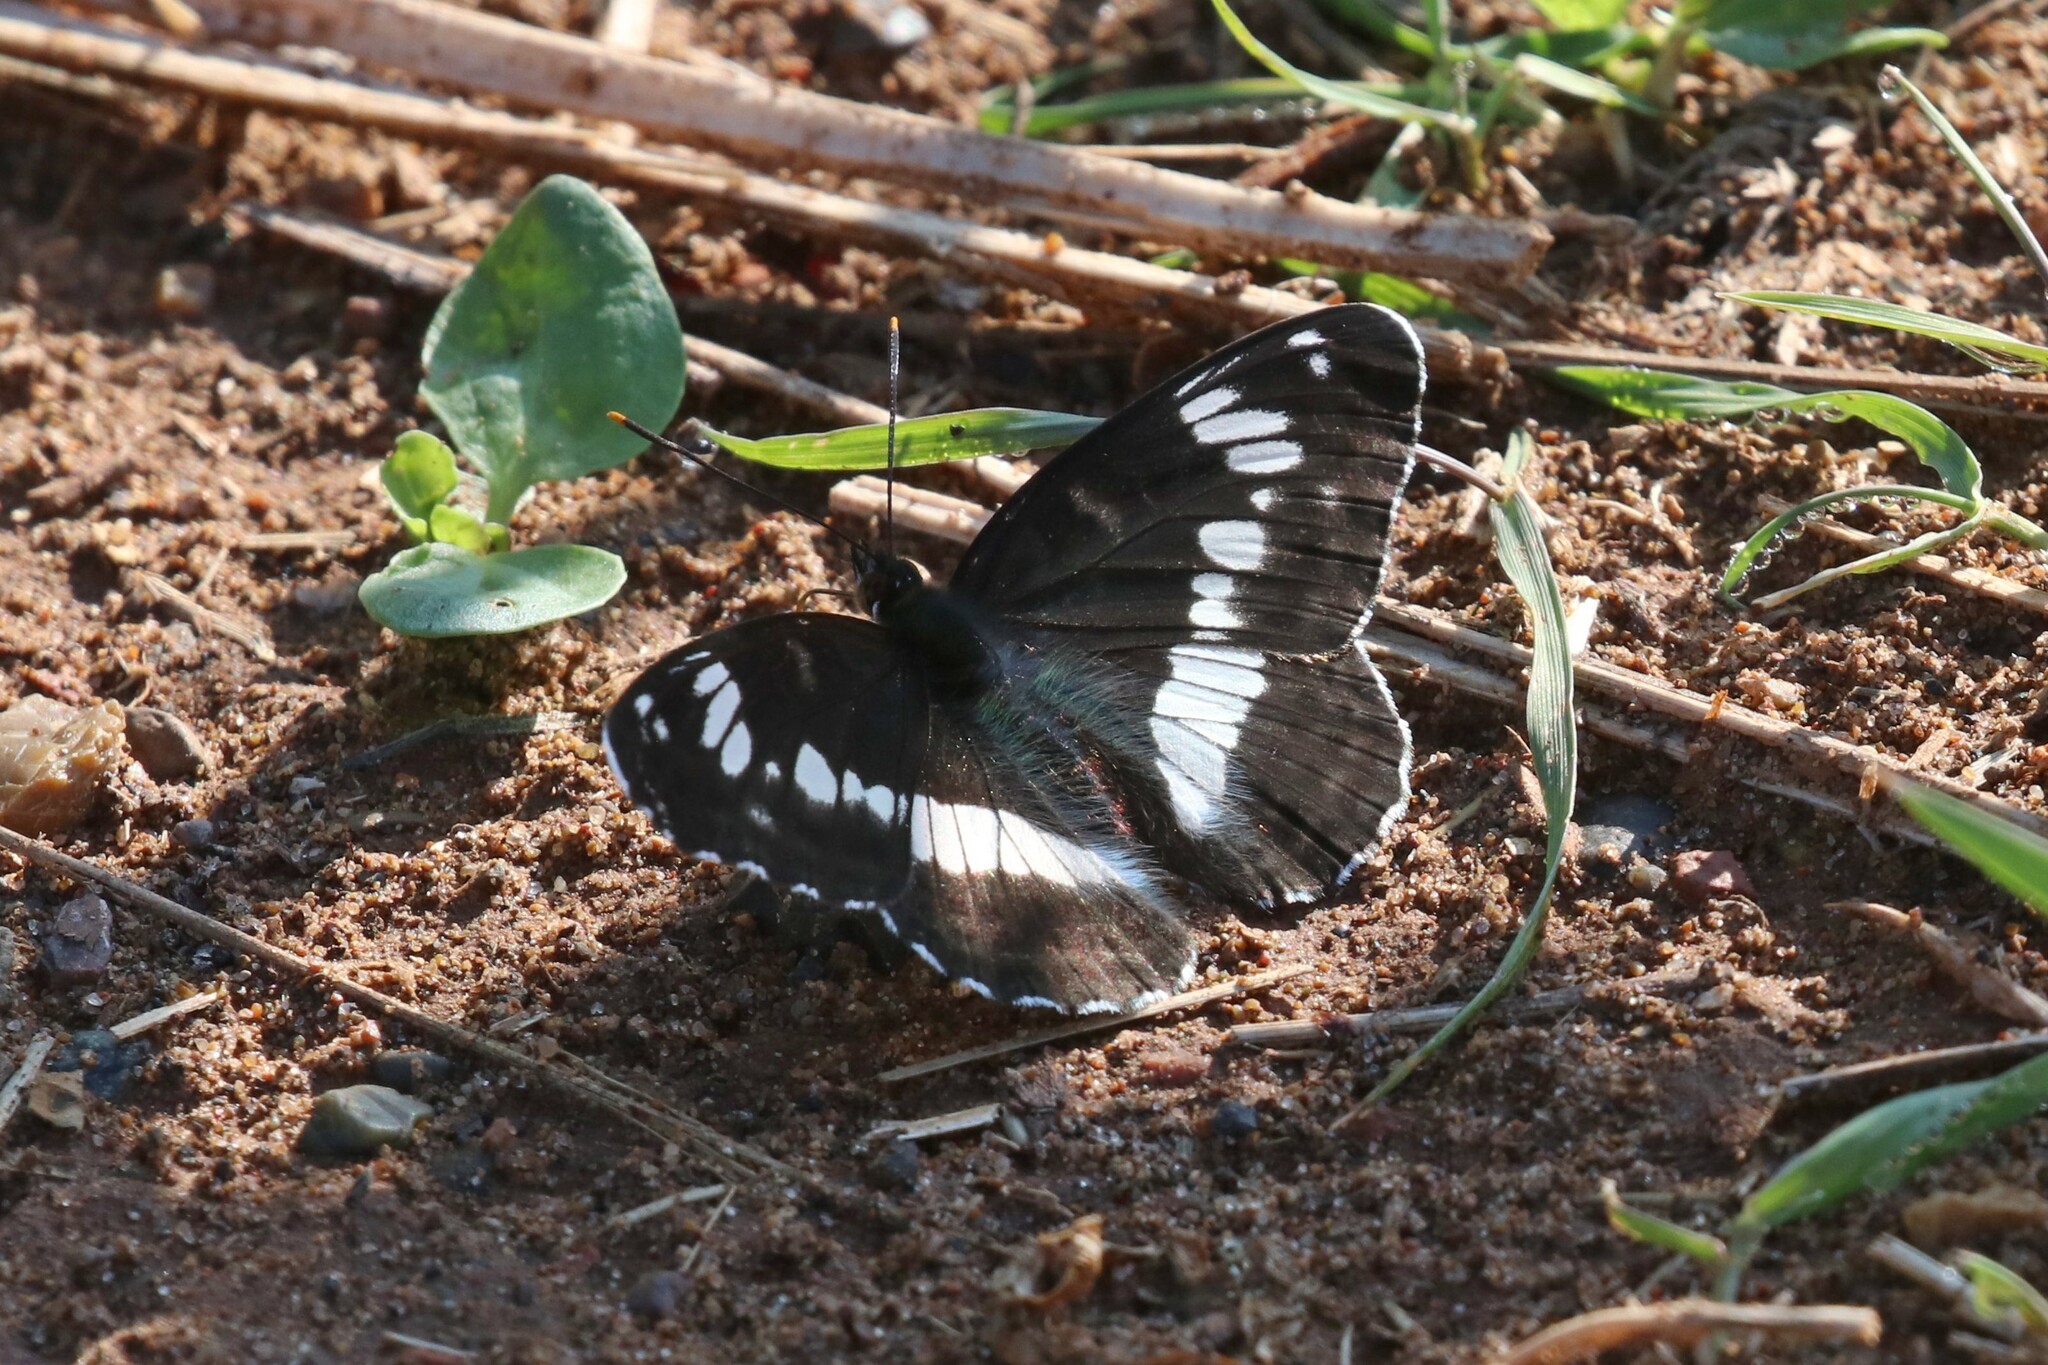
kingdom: Animalia
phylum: Arthropoda
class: Insecta
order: Lepidoptera
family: Nymphalidae
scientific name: Nymphalidae
